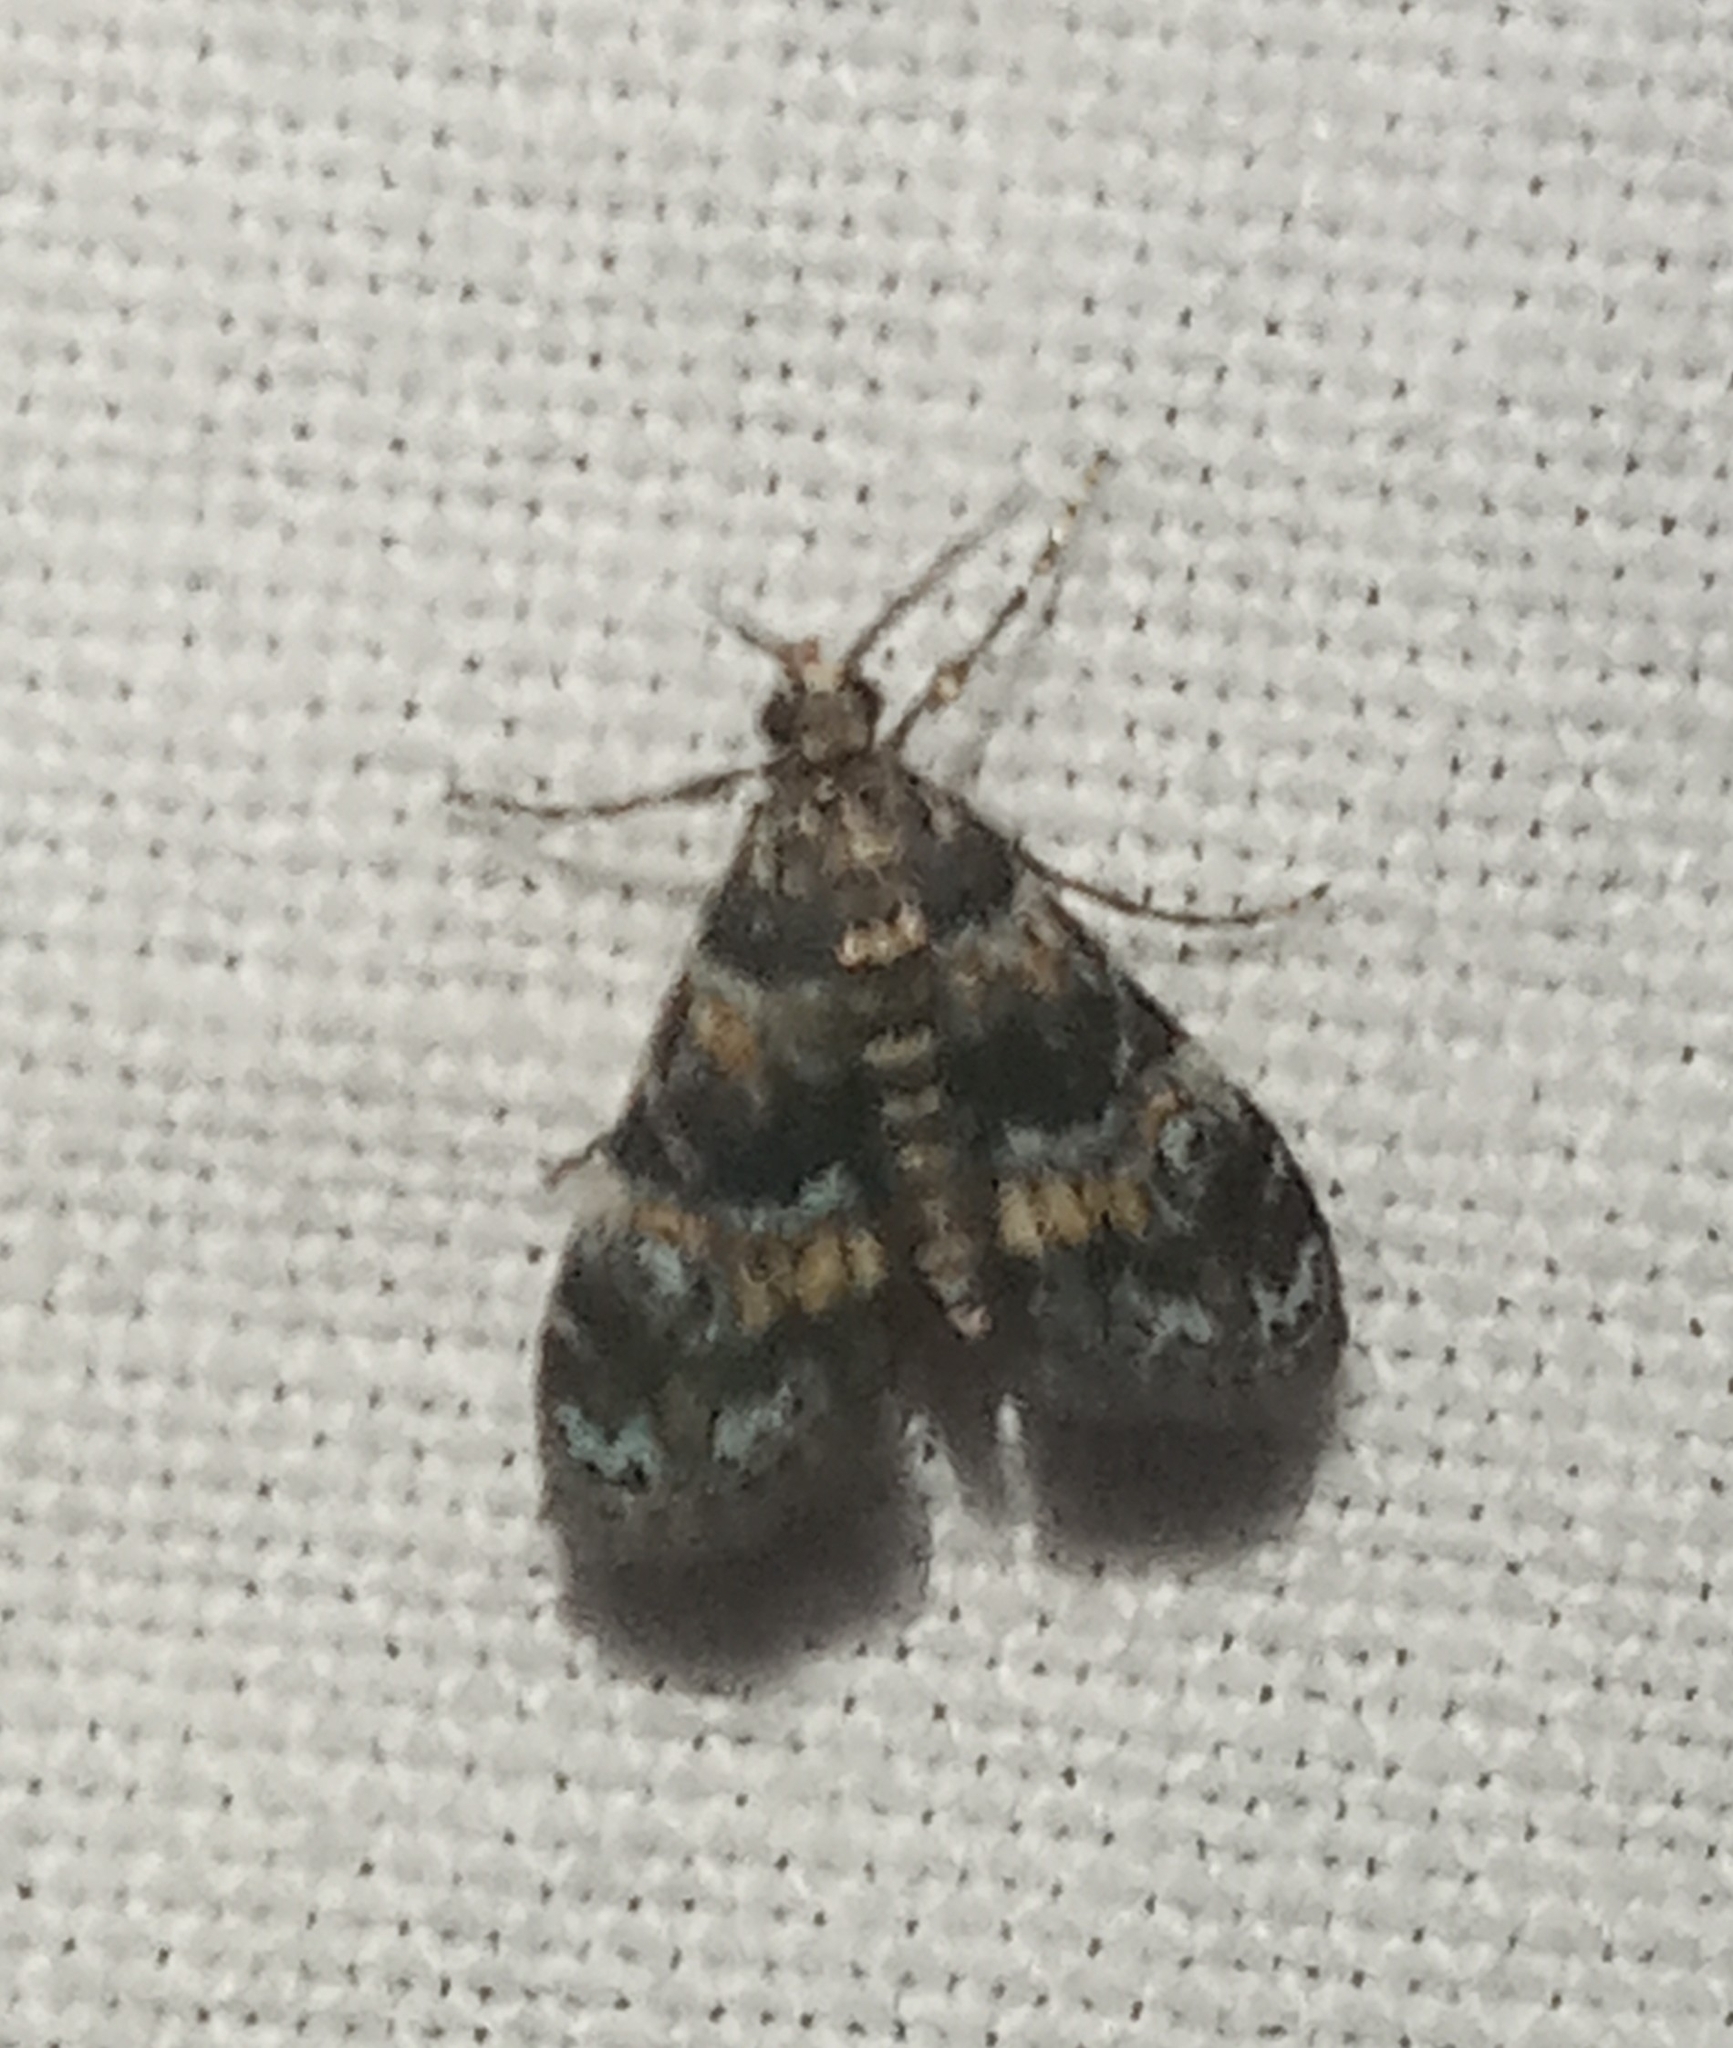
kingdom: Animalia
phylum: Arthropoda
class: Insecta
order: Lepidoptera
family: Crambidae
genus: Elophila
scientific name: Elophila obliteralis
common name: Waterlily leafcutter moth
